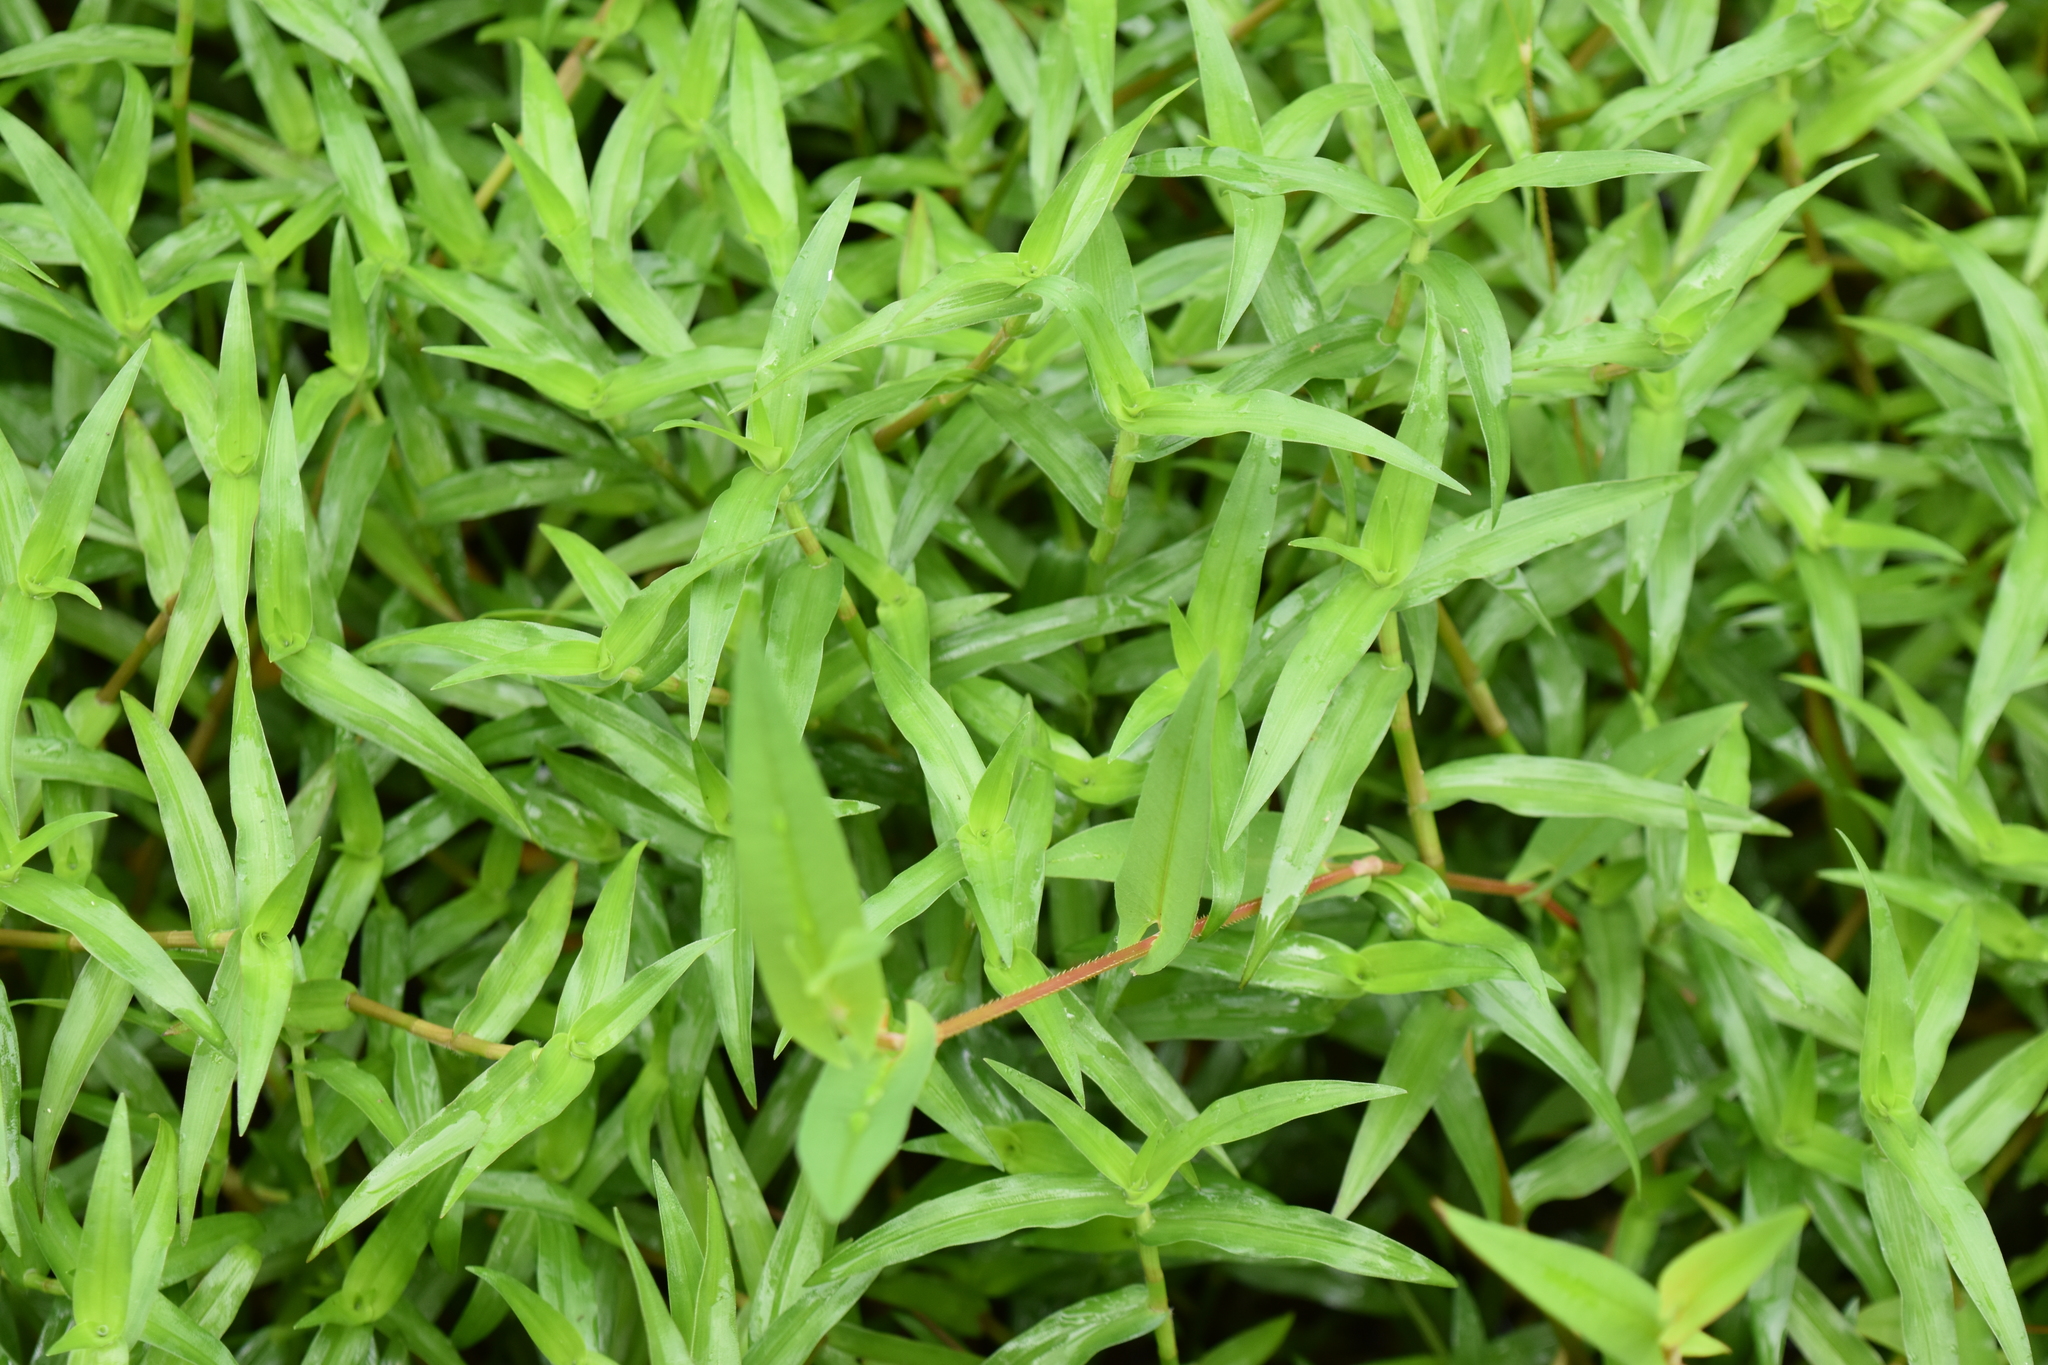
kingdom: Plantae
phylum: Tracheophyta
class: Liliopsida
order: Commelinales
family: Commelinaceae
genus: Murdannia
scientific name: Murdannia keisak
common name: Wartremoving herb
